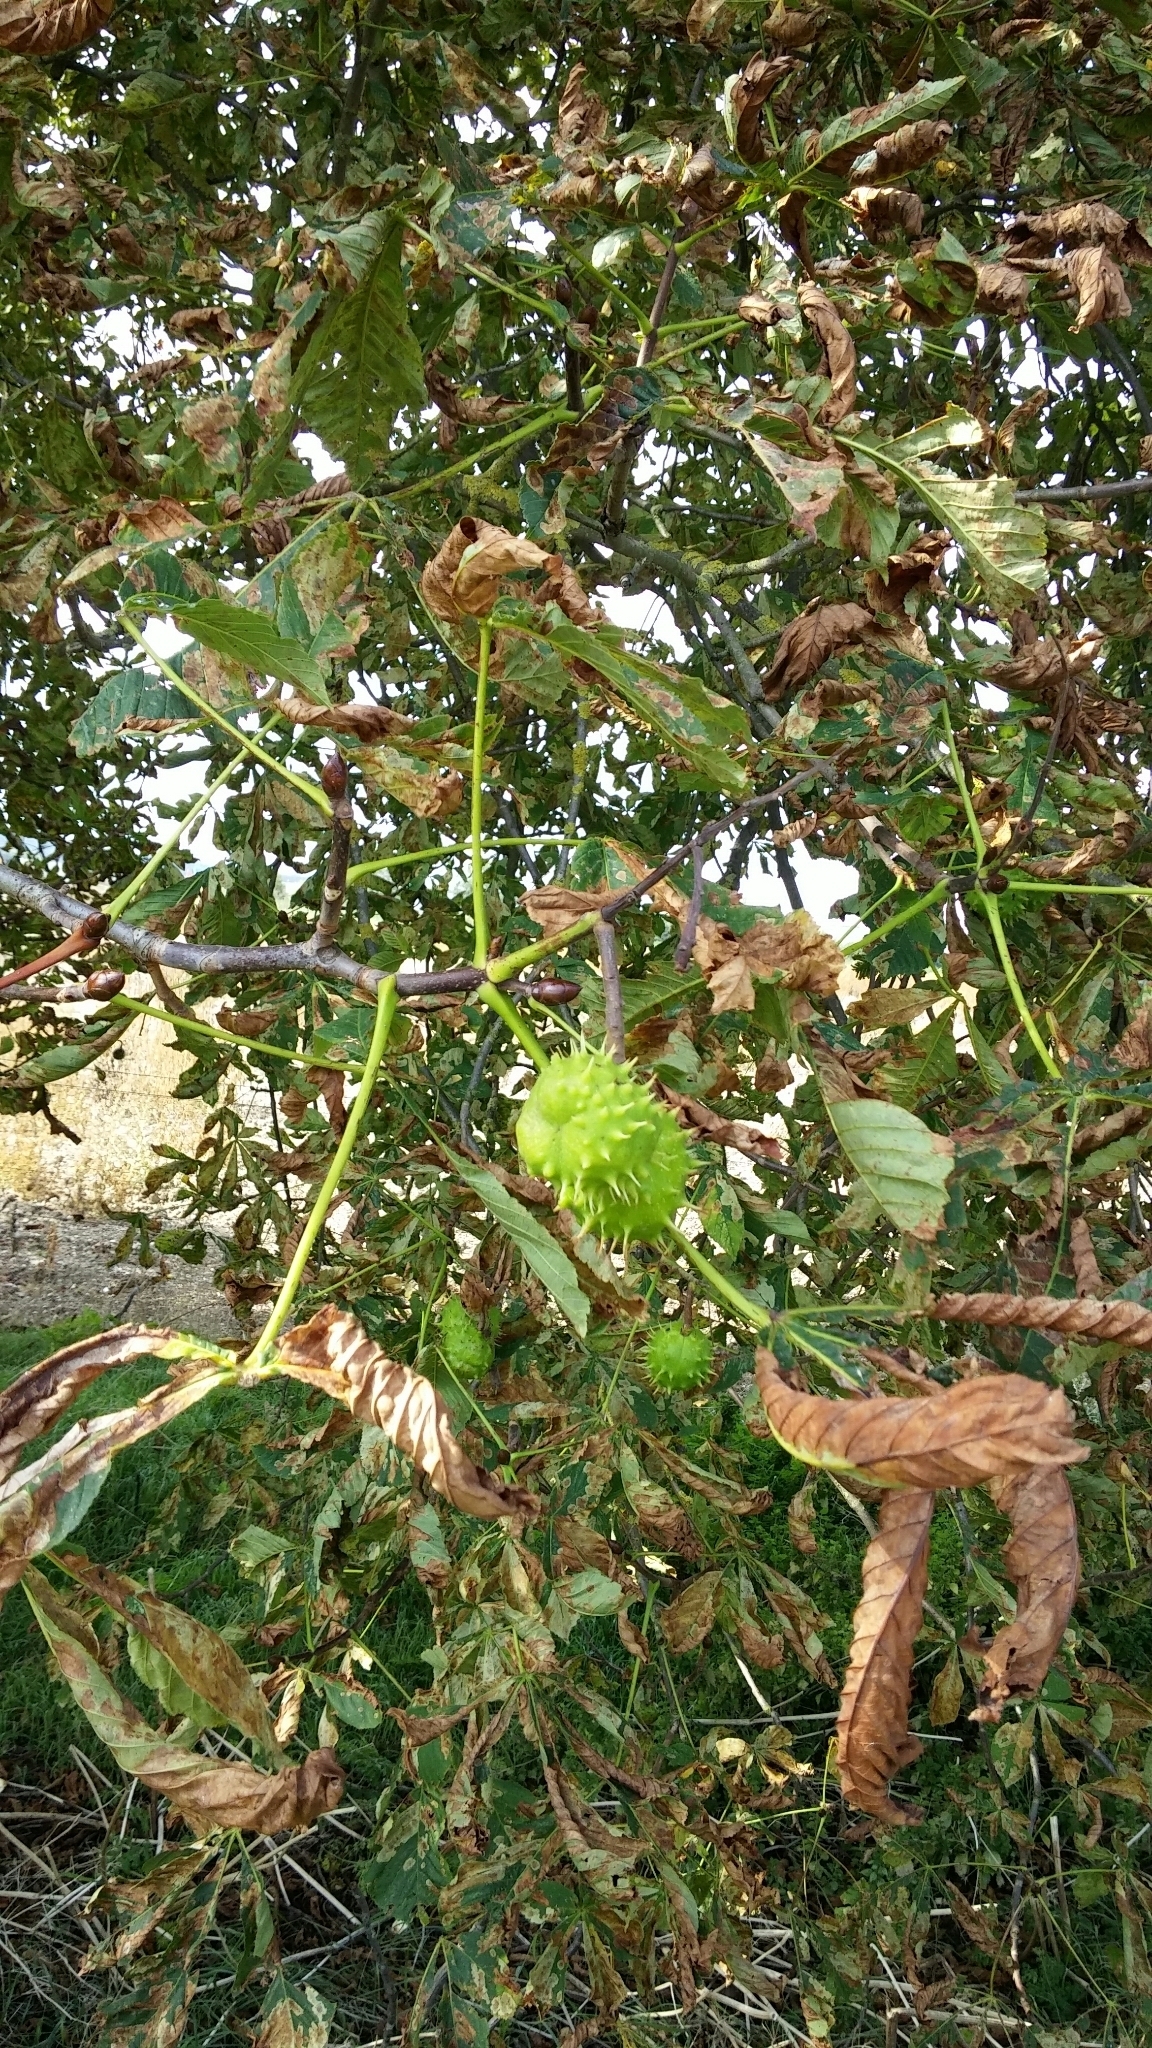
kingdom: Plantae
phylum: Tracheophyta
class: Magnoliopsida
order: Sapindales
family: Sapindaceae
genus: Aesculus
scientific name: Aesculus hippocastanum
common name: Horse-chestnut
